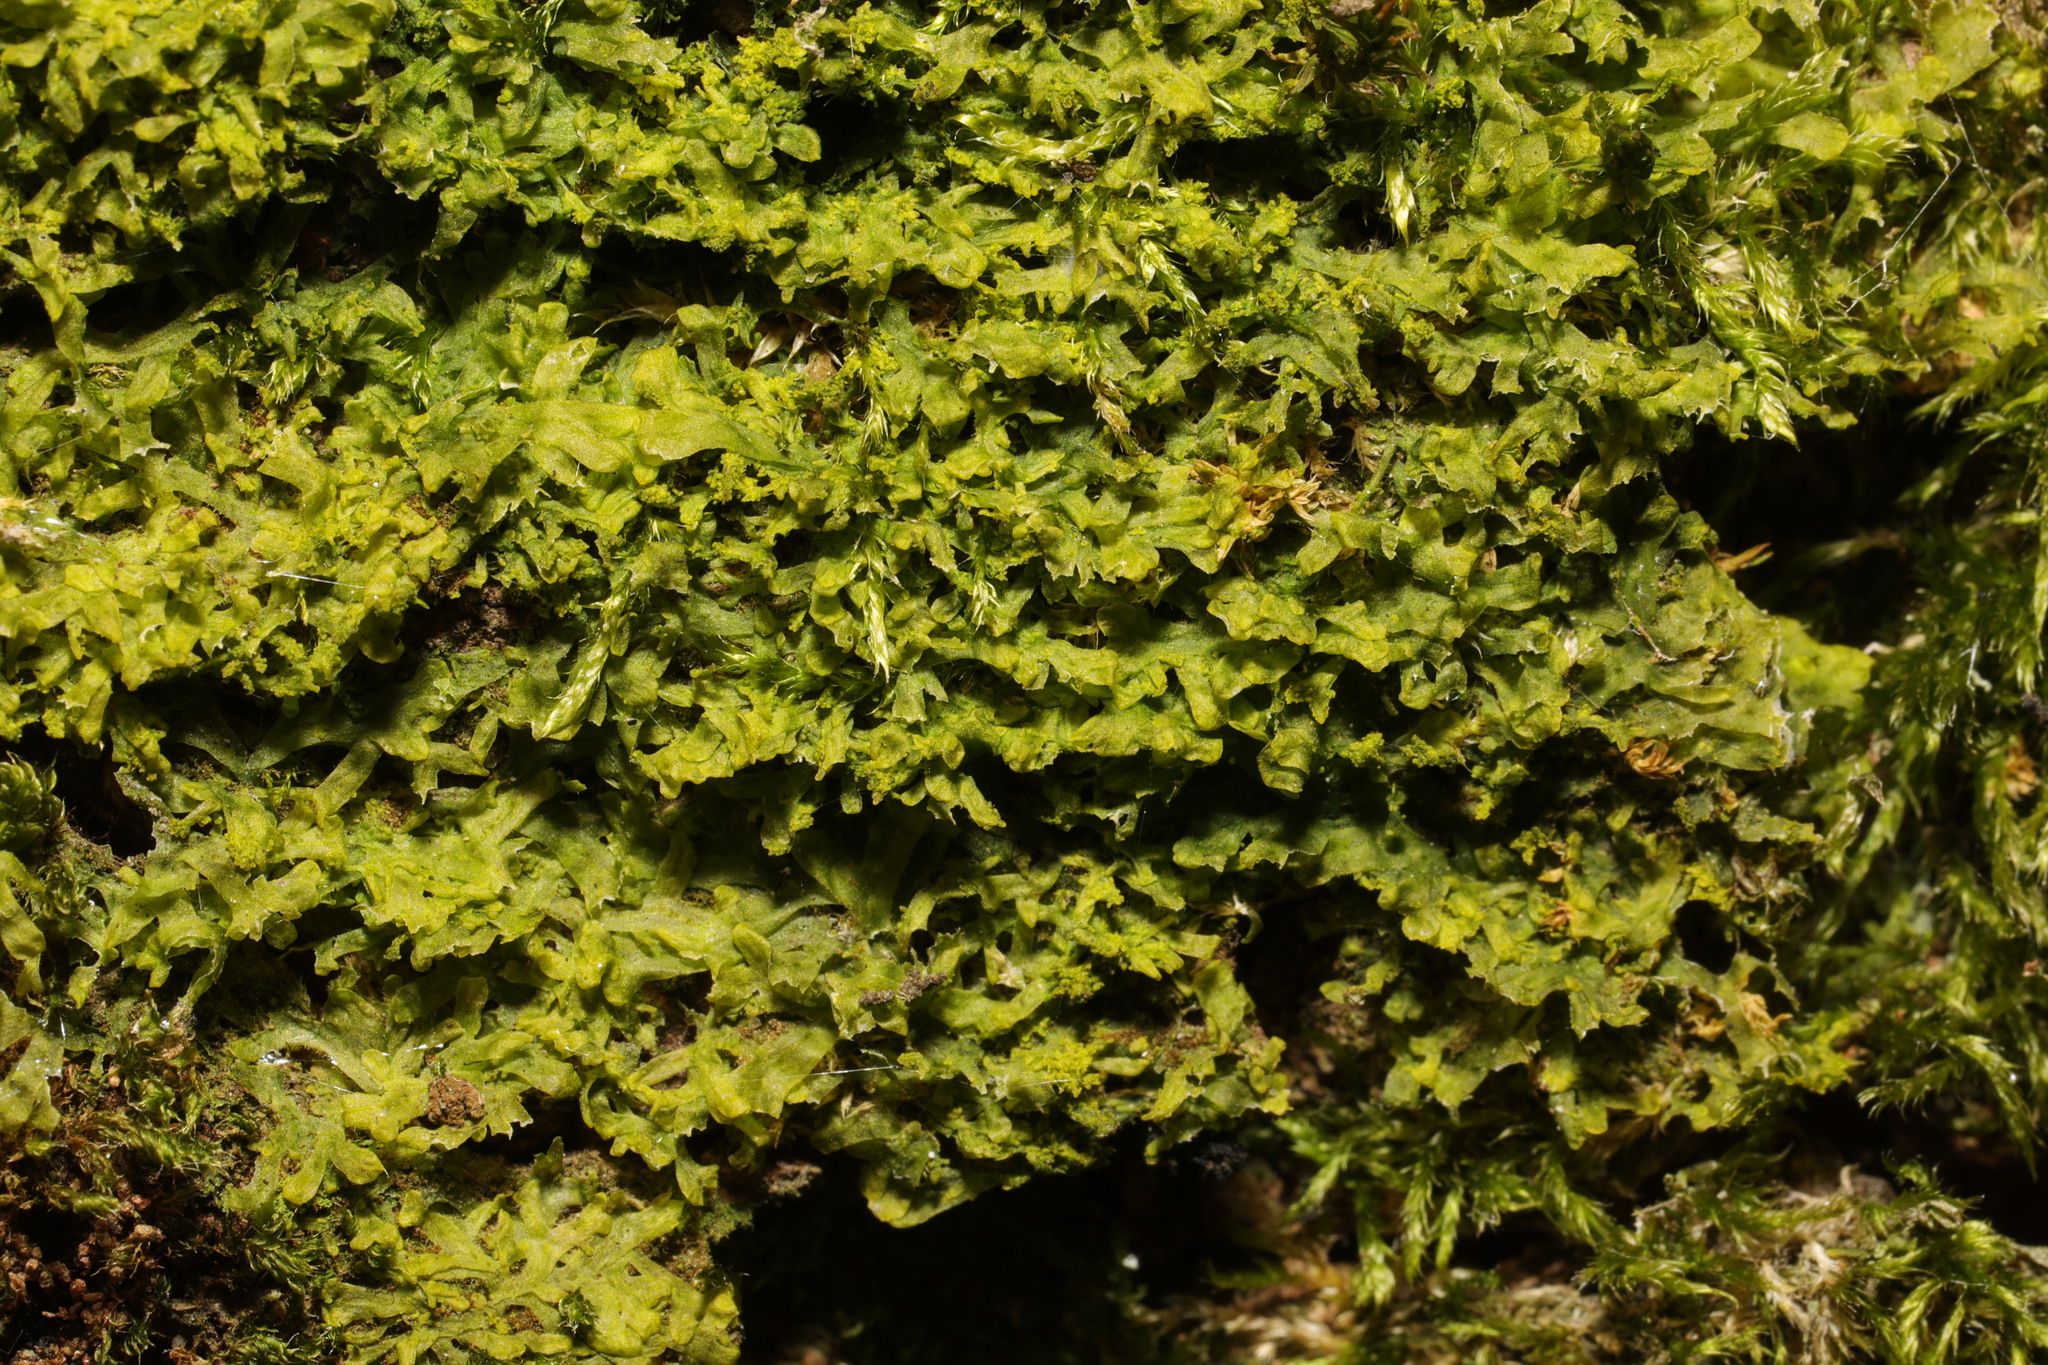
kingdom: Plantae
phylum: Marchantiophyta
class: Jungermanniopsida
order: Metzgeriales
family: Metzgeriaceae
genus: Metzgeria
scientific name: Metzgeria furcata
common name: Forked veilwort
